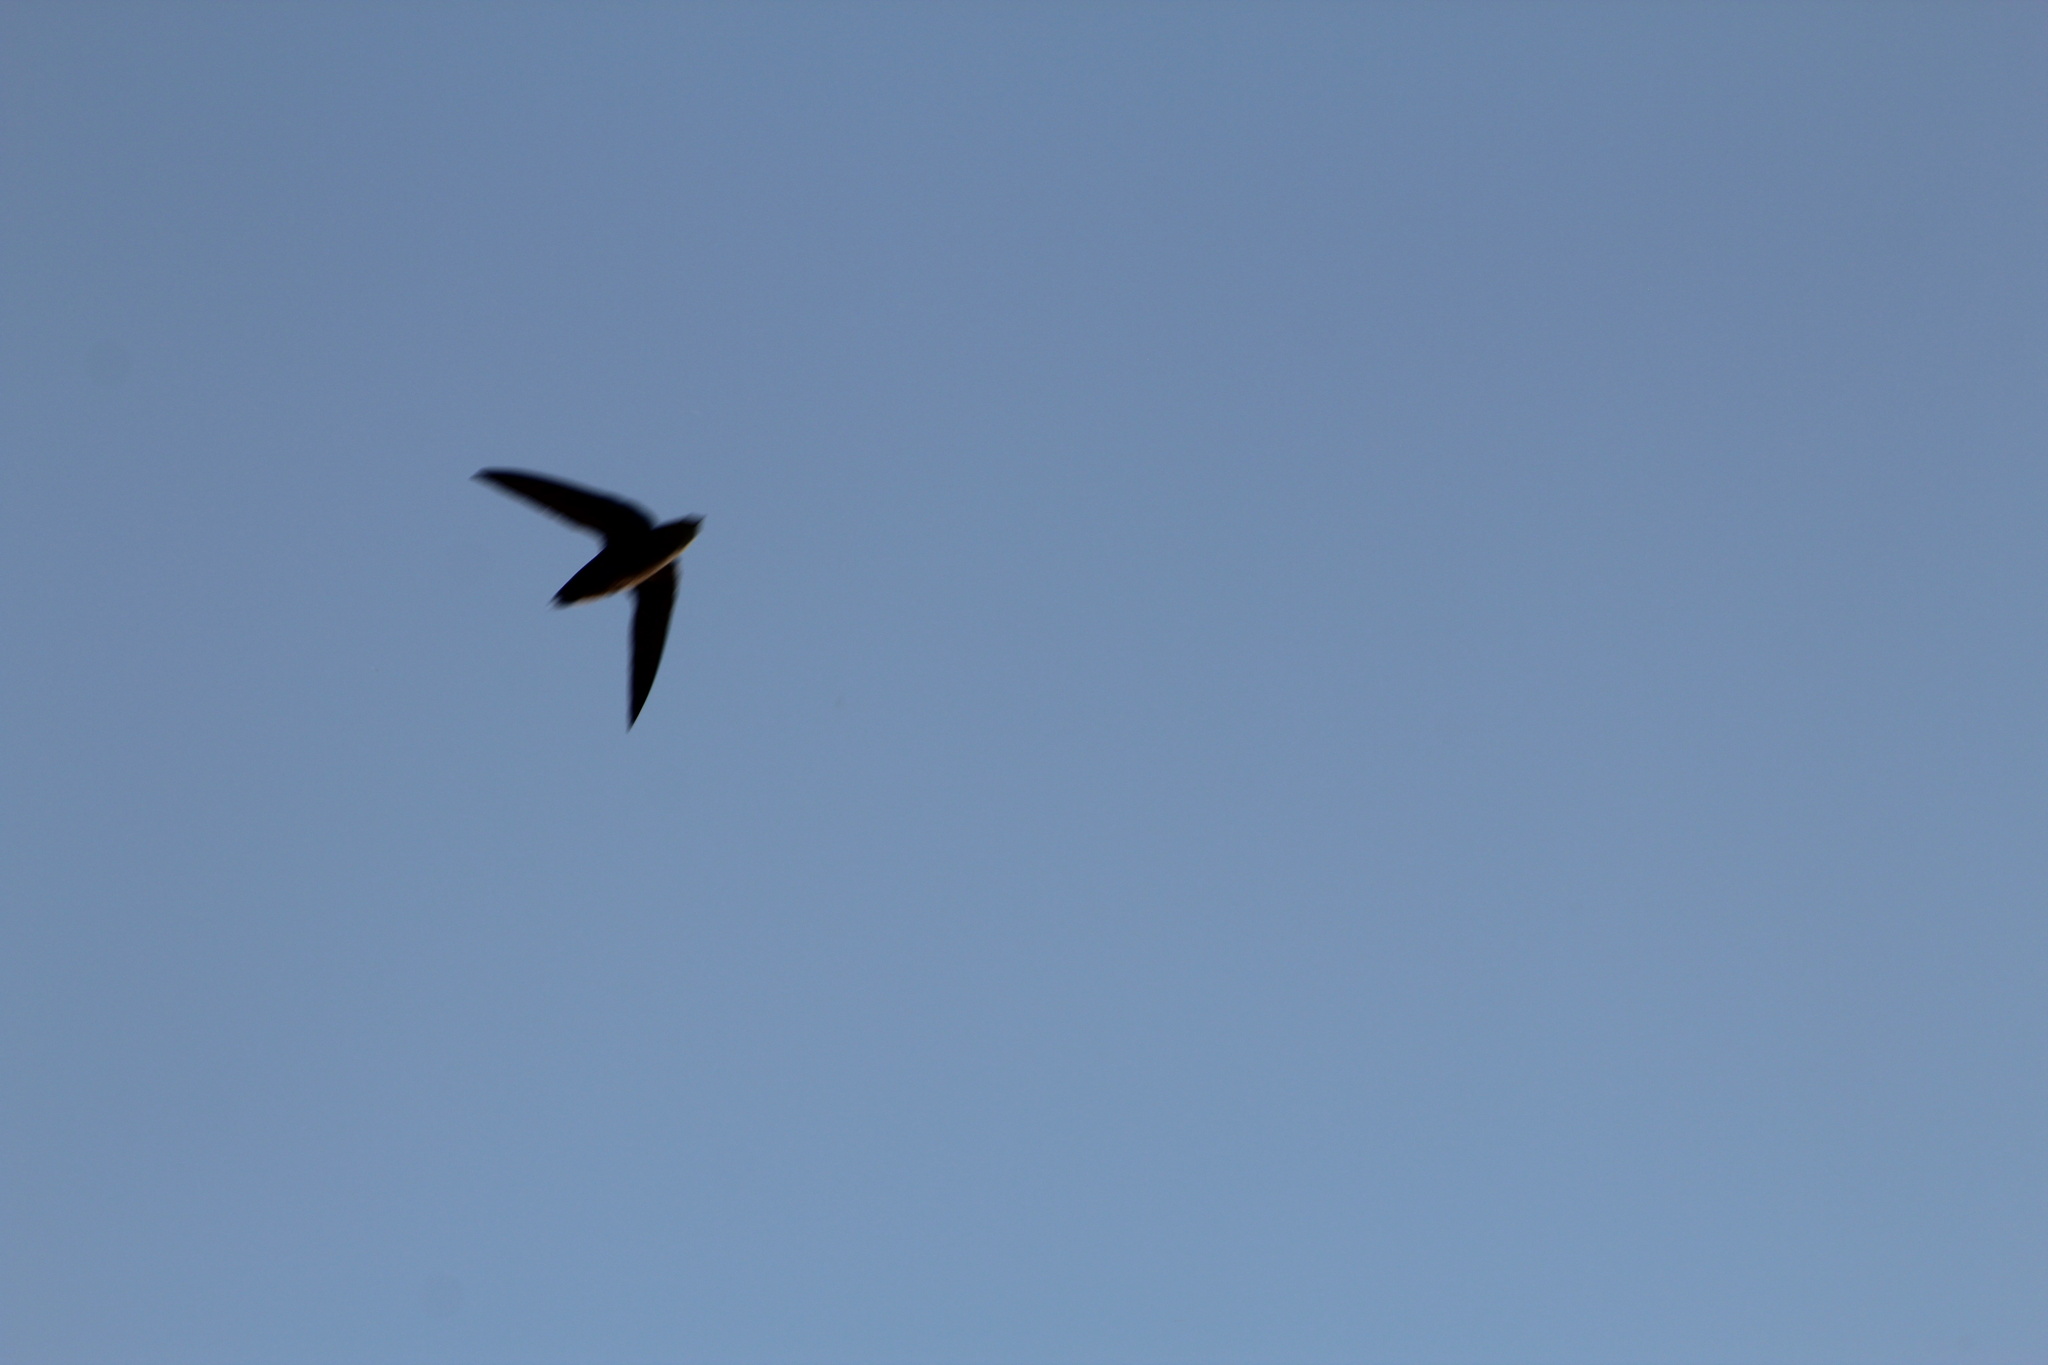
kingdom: Animalia
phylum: Chordata
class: Aves
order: Apodiformes
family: Apodidae
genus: Chaetura
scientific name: Chaetura pelagica
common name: Chimney swift
